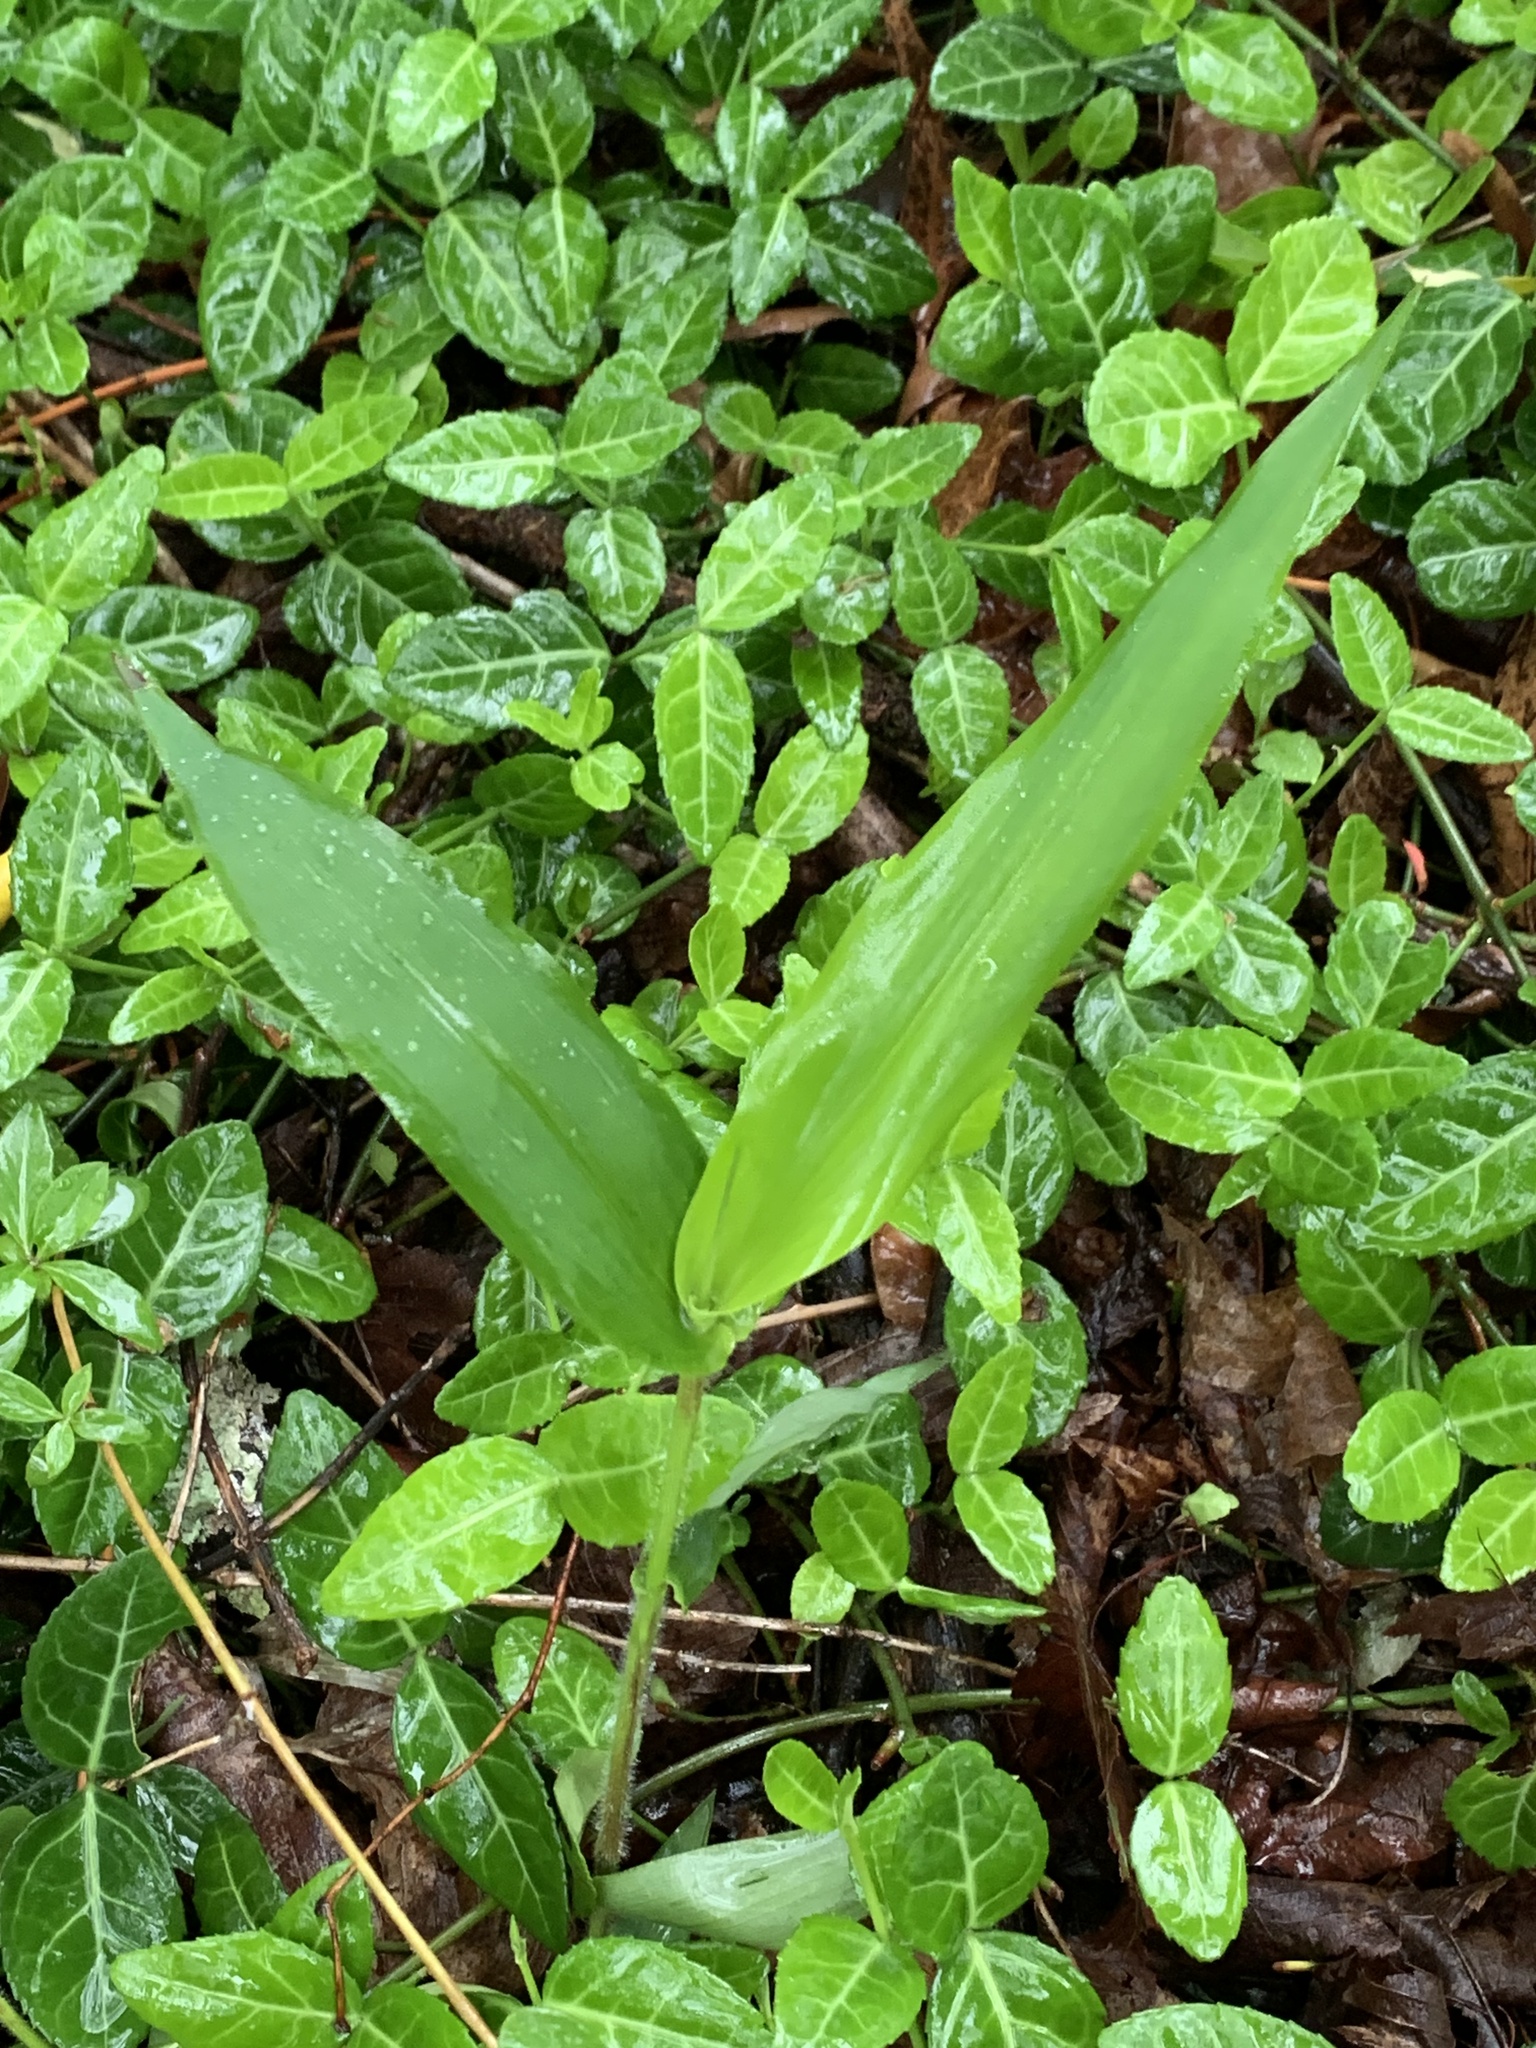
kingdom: Plantae
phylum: Tracheophyta
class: Liliopsida
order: Poales
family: Poaceae
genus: Dichanthelium
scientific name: Dichanthelium clandestinum
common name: Deer-tongue grass
